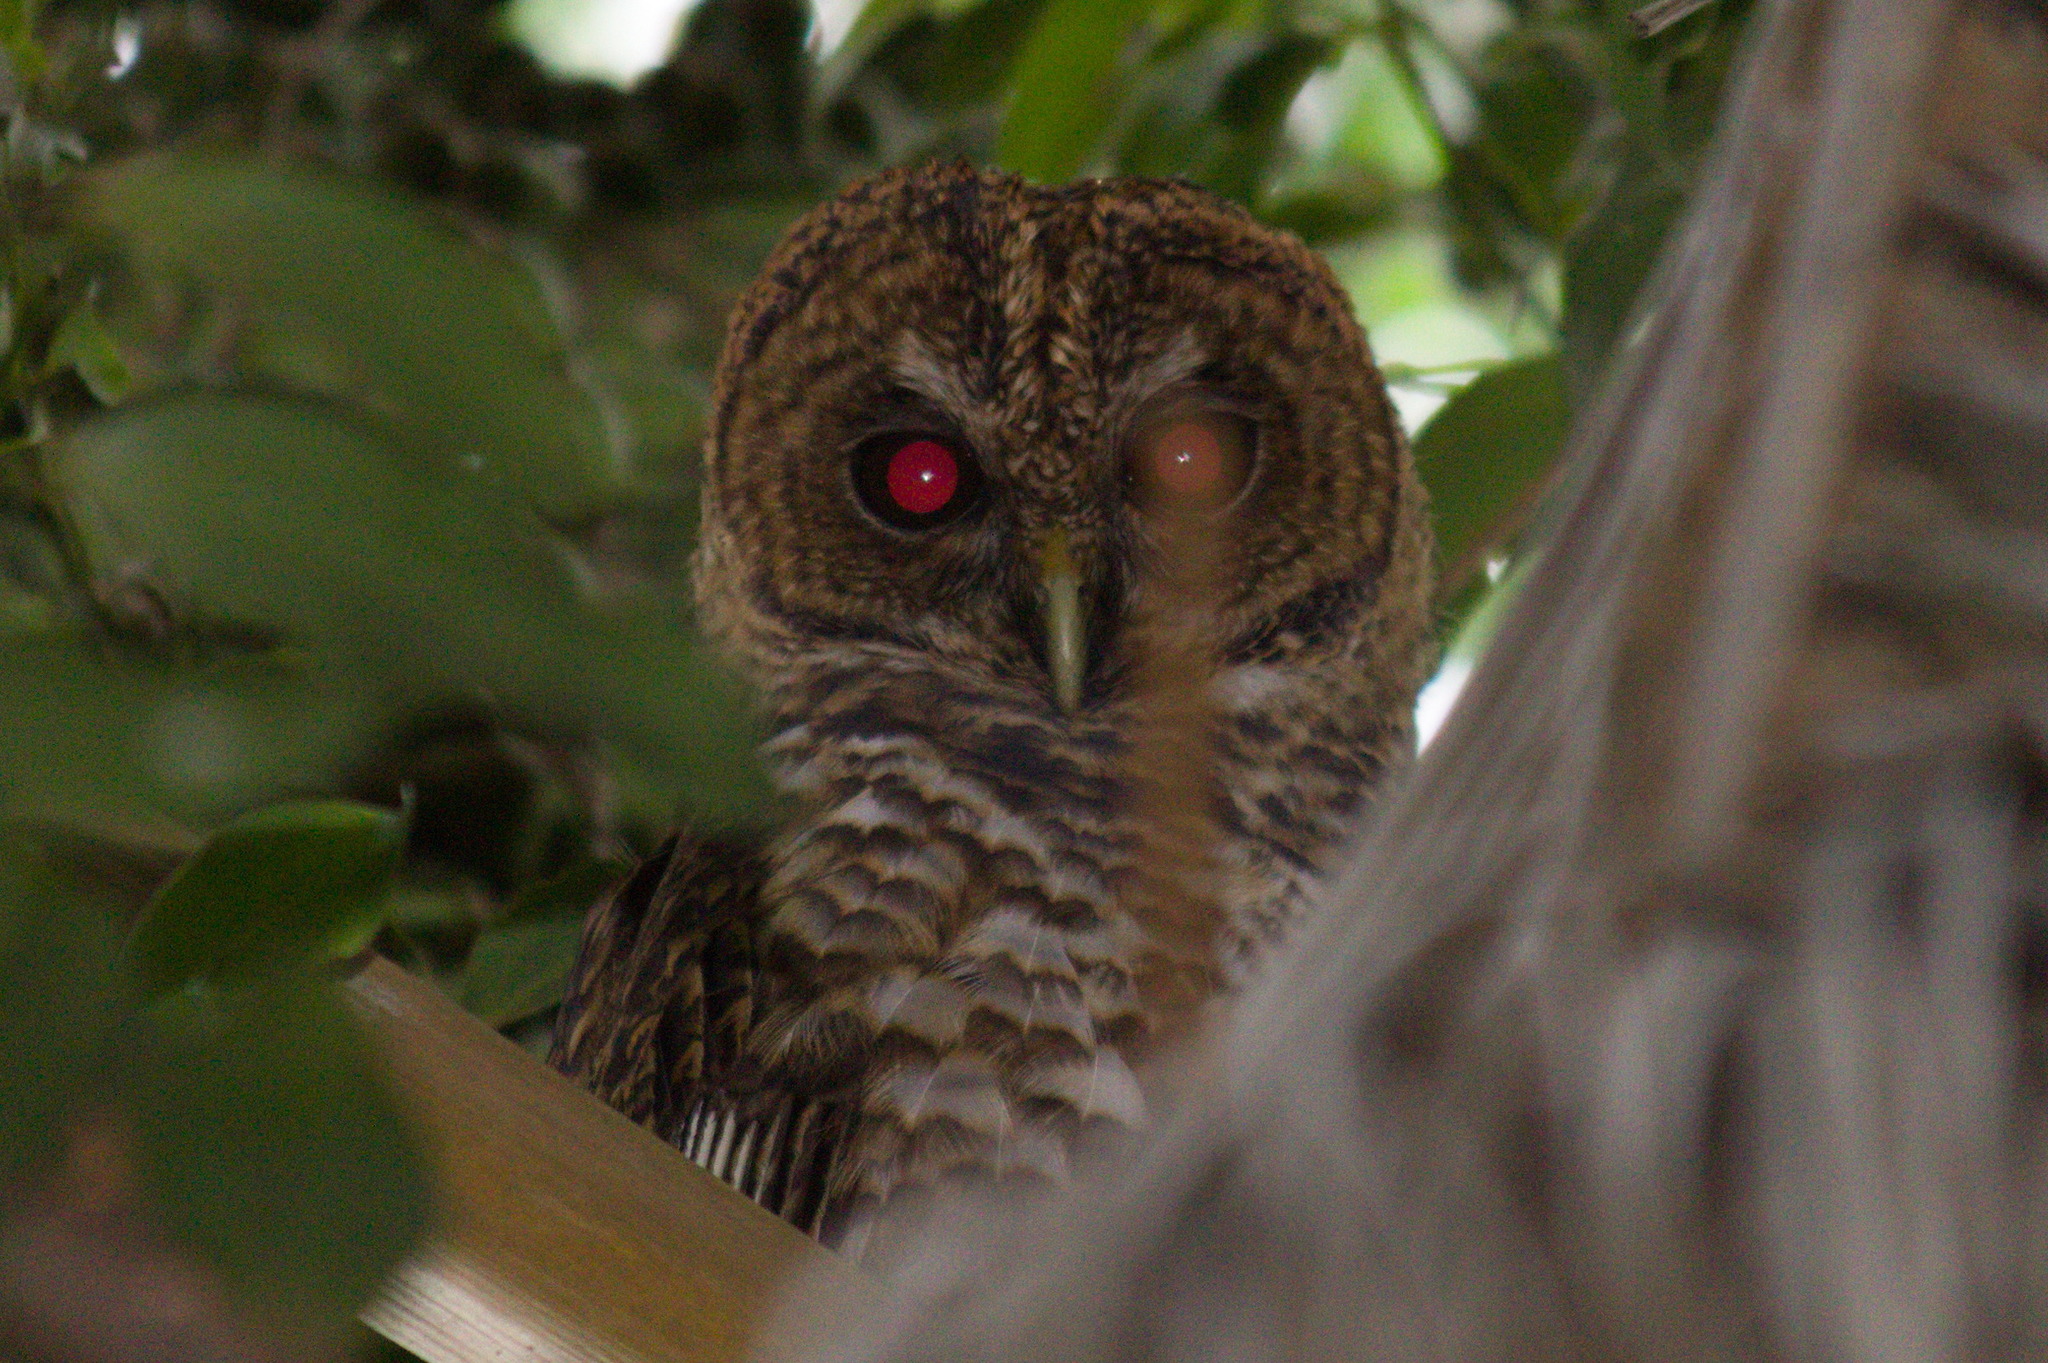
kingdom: Animalia
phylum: Chordata
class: Aves
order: Strigiformes
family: Strigidae
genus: Strix
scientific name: Strix hylophila
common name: Rusty-barred owl
